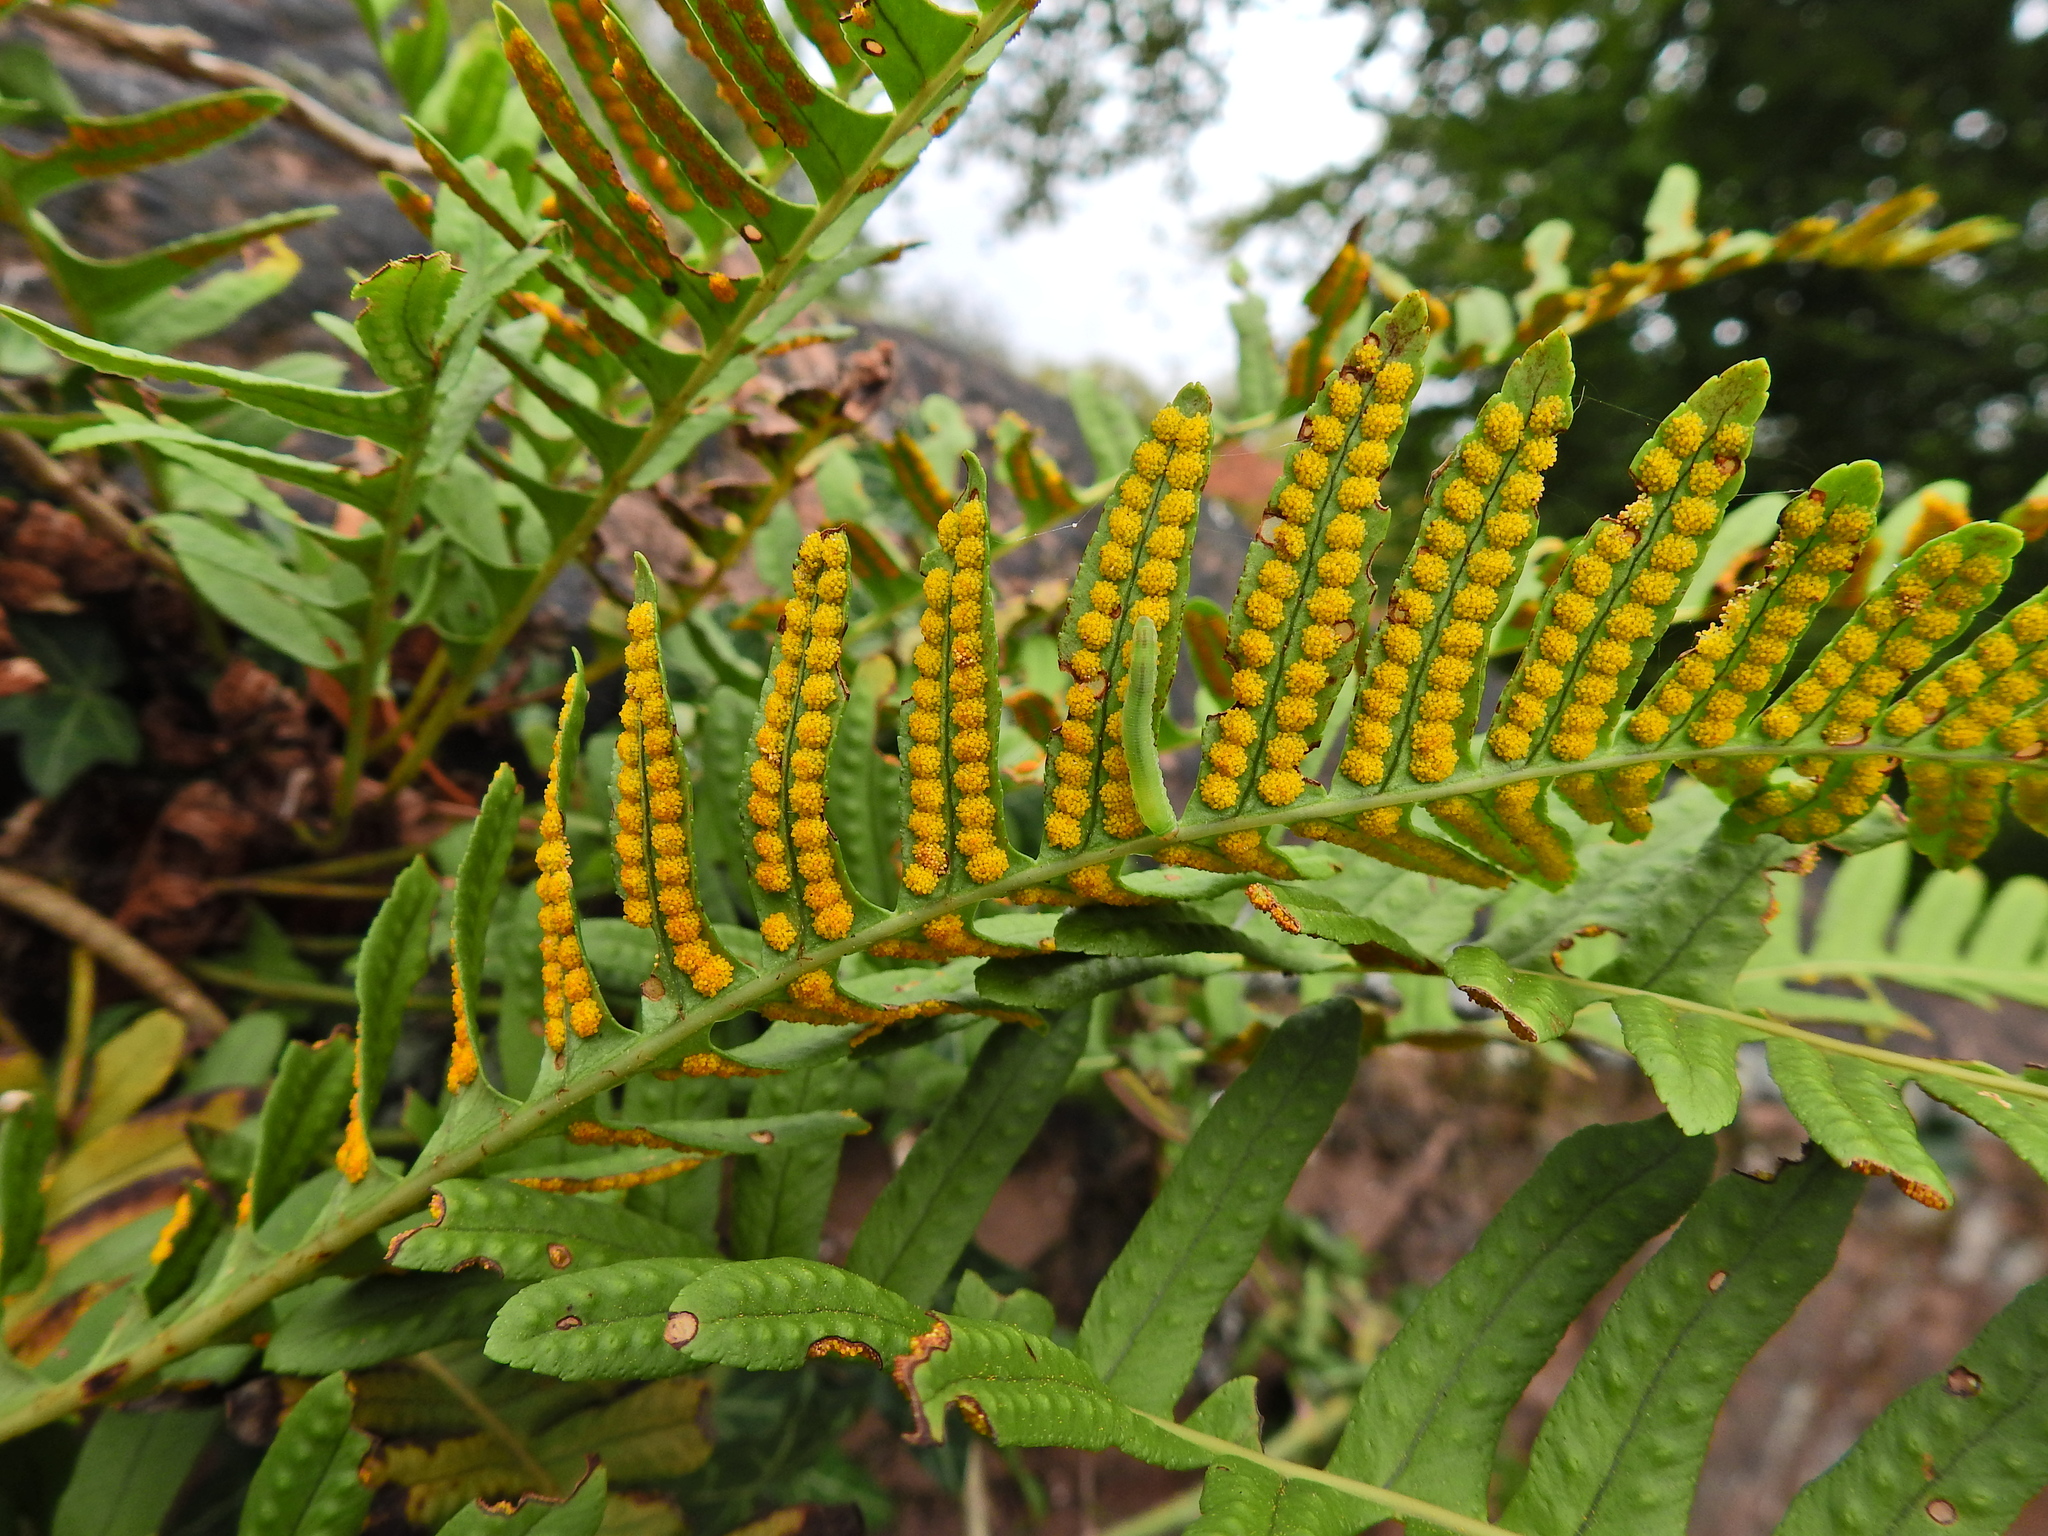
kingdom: Plantae
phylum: Tracheophyta
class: Polypodiopsida
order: Polypodiales
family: Polypodiaceae
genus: Polypodium
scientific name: Polypodium vulgare
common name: Common polypody
